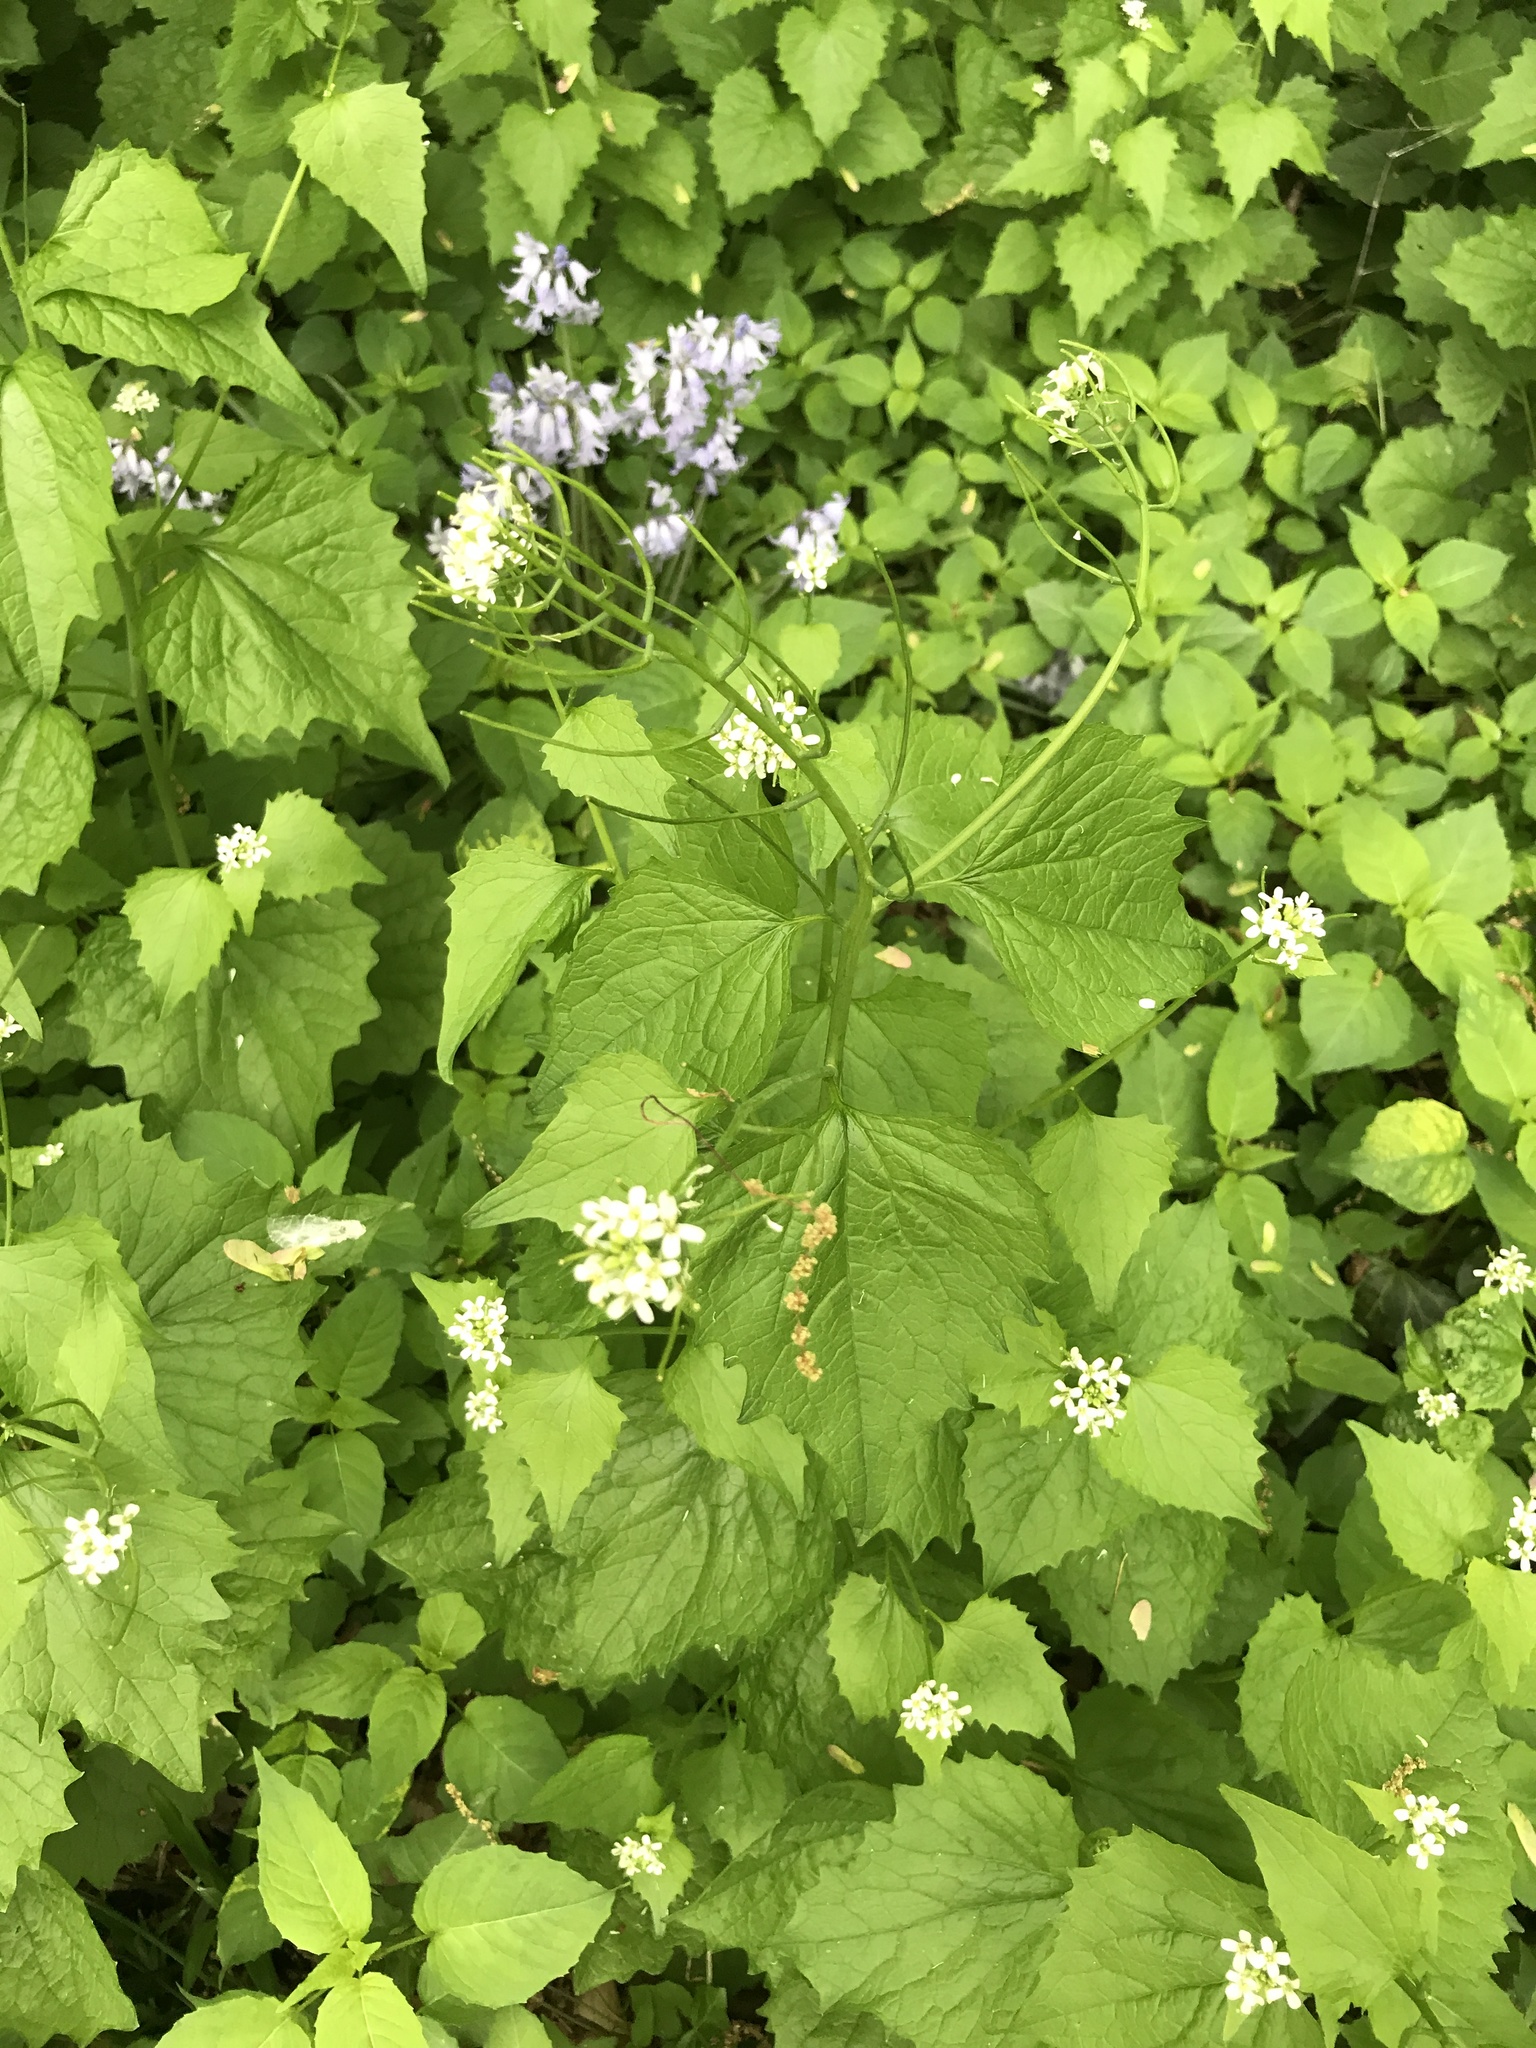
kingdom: Plantae
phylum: Tracheophyta
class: Magnoliopsida
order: Brassicales
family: Brassicaceae
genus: Alliaria
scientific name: Alliaria petiolata
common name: Garlic mustard
